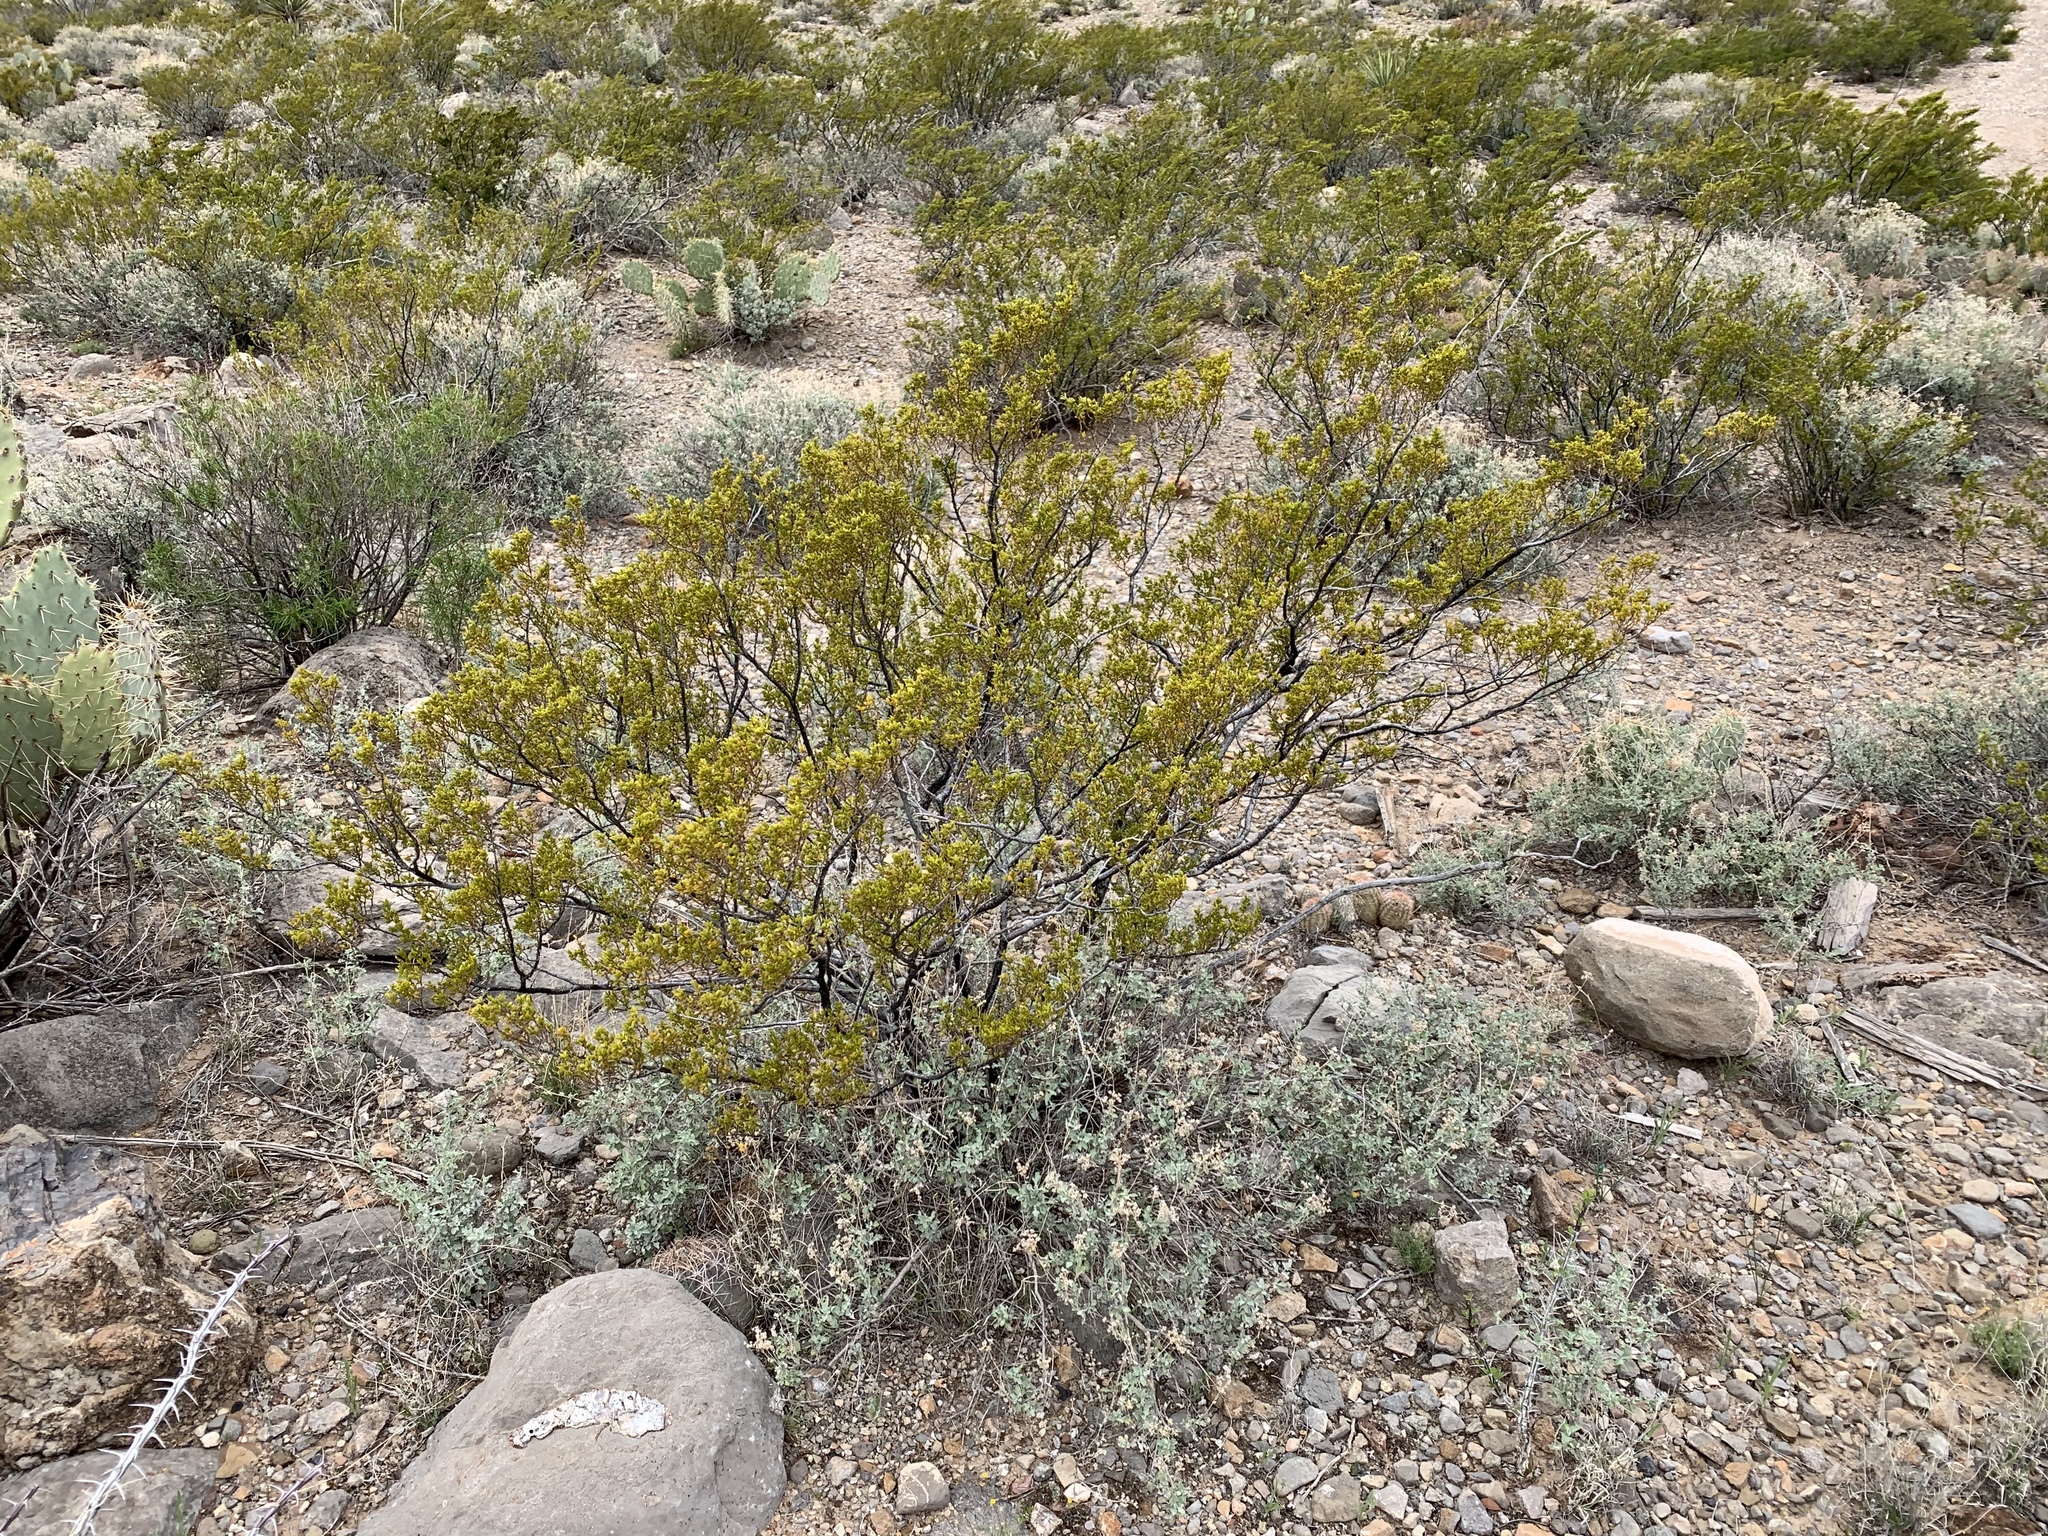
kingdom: Plantae
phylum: Tracheophyta
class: Magnoliopsida
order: Zygophyllales
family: Zygophyllaceae
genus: Larrea
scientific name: Larrea tridentata
